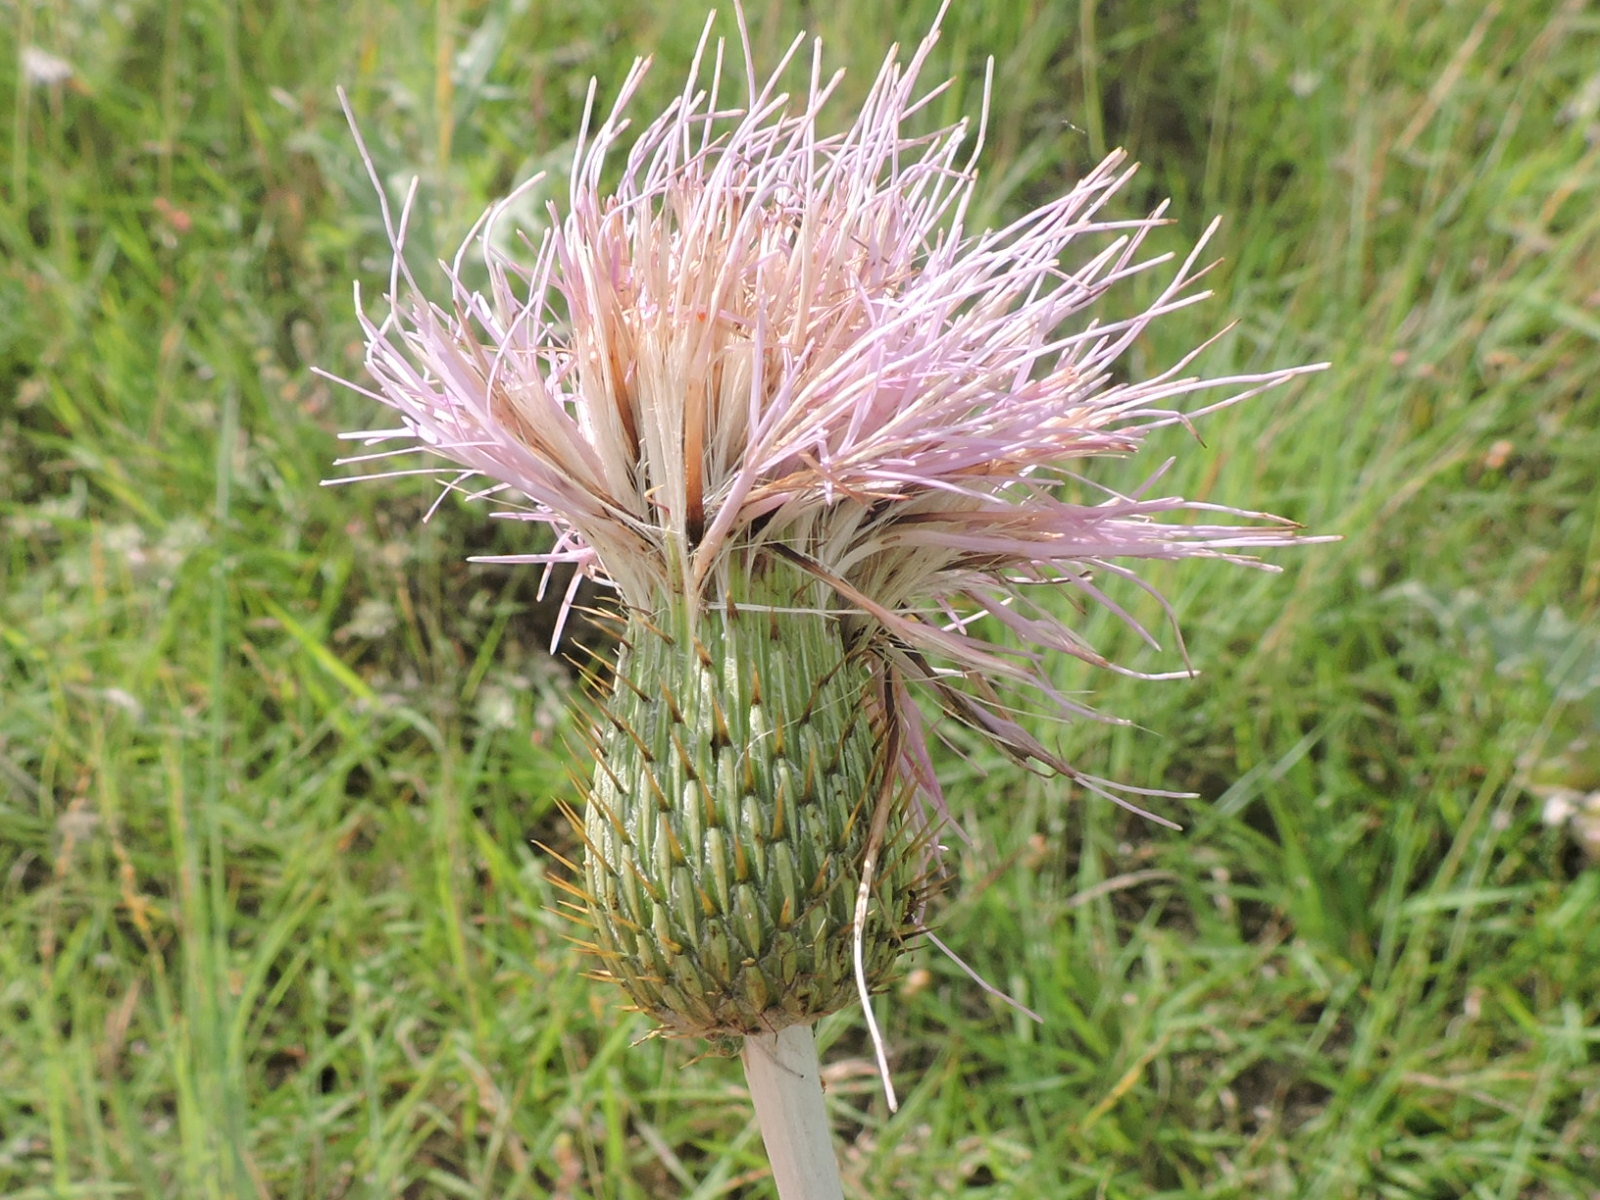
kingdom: Plantae
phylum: Tracheophyta
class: Magnoliopsida
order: Asterales
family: Asteraceae
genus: Cirsium
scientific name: Cirsium undulatum
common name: Pasture thistle
